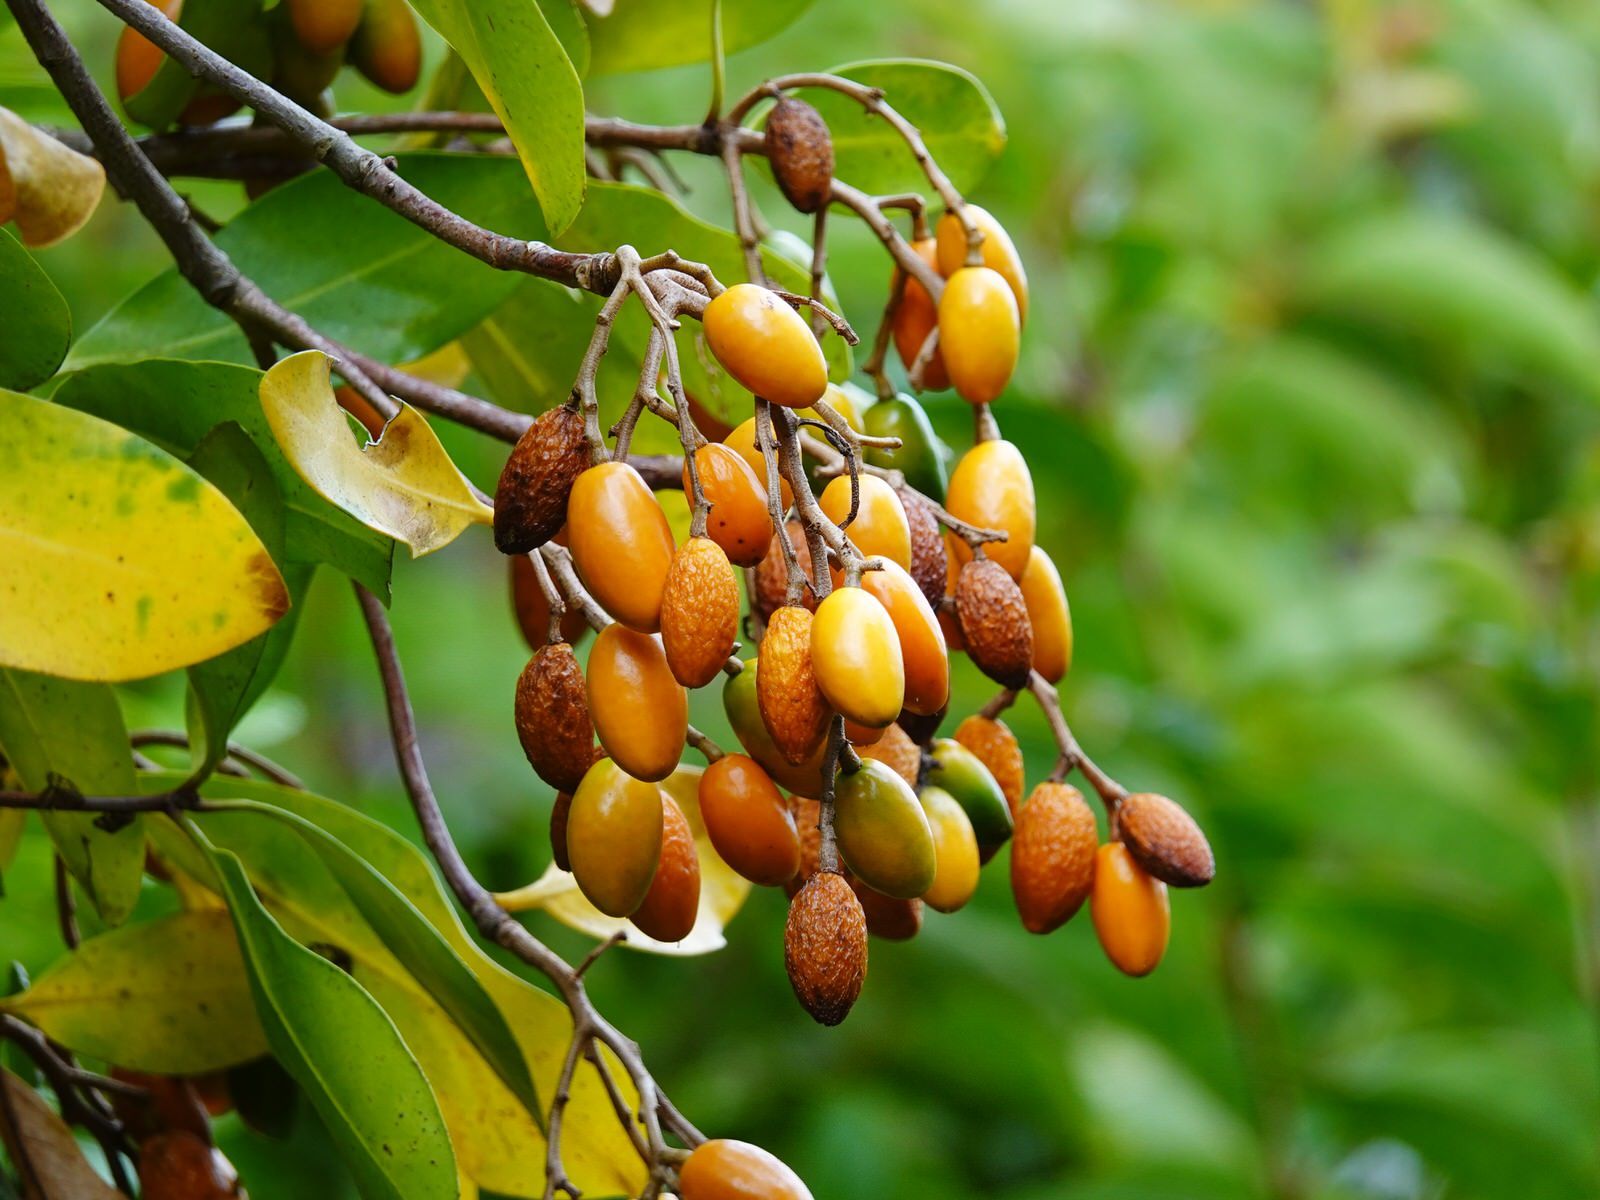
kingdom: Plantae
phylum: Tracheophyta
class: Magnoliopsida
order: Cucurbitales
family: Corynocarpaceae
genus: Corynocarpus
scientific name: Corynocarpus laevigatus
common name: New zealand laurel
